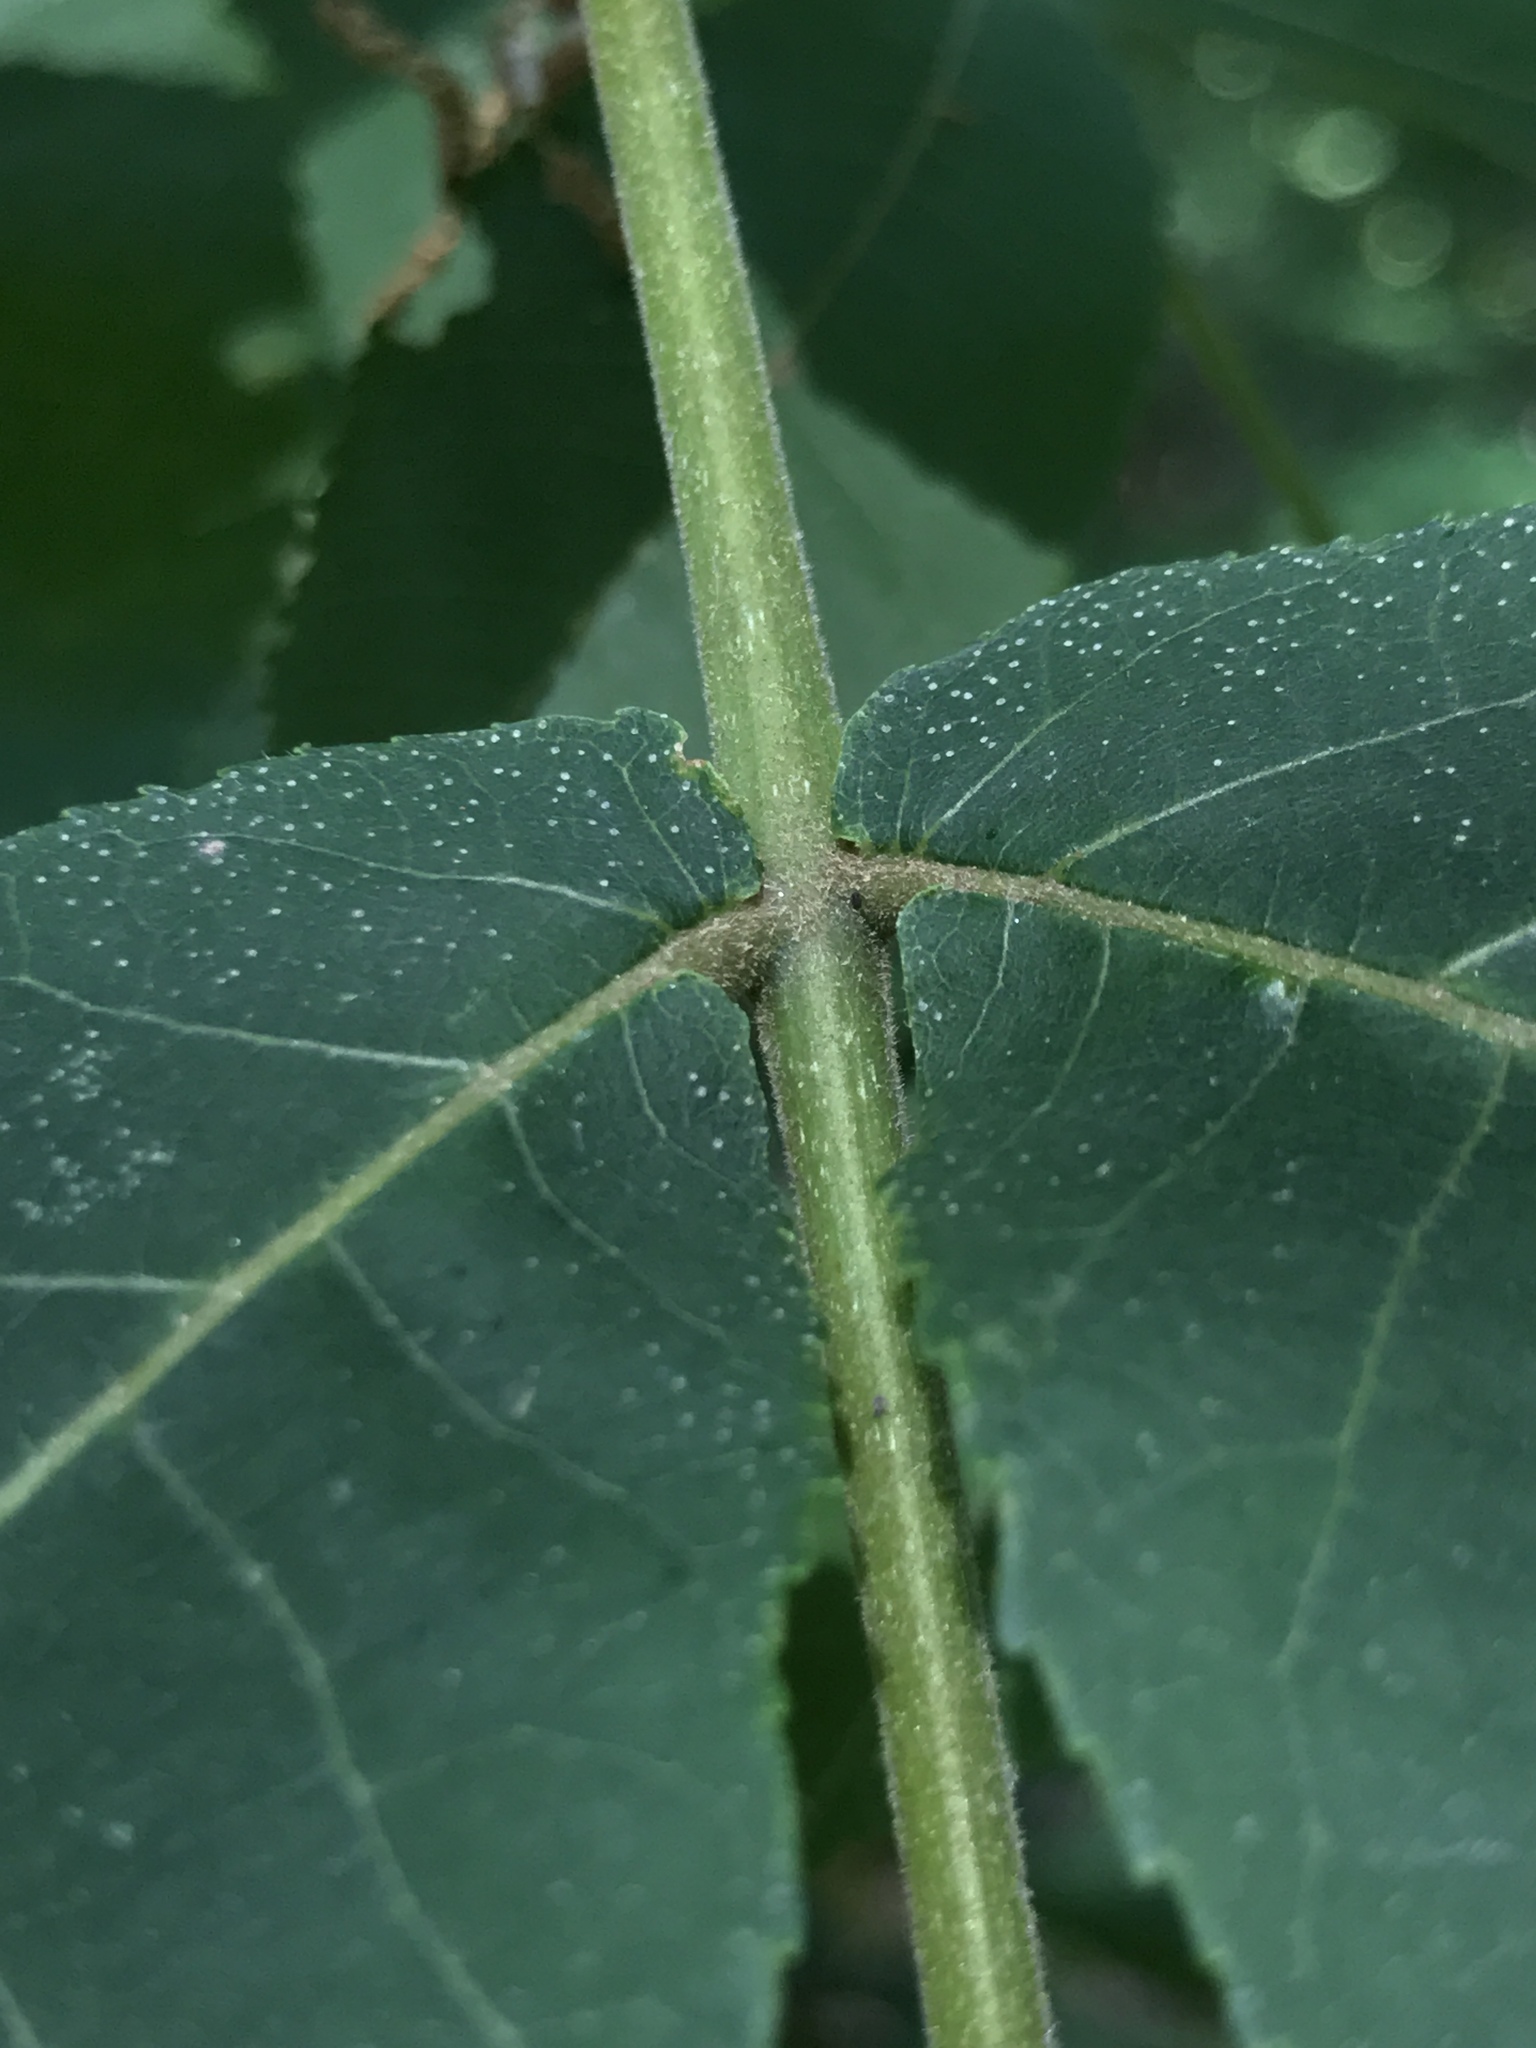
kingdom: Plantae
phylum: Tracheophyta
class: Magnoliopsida
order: Fagales
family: Juglandaceae
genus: Carya
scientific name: Carya cordiformis
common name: Bitternut hickory
